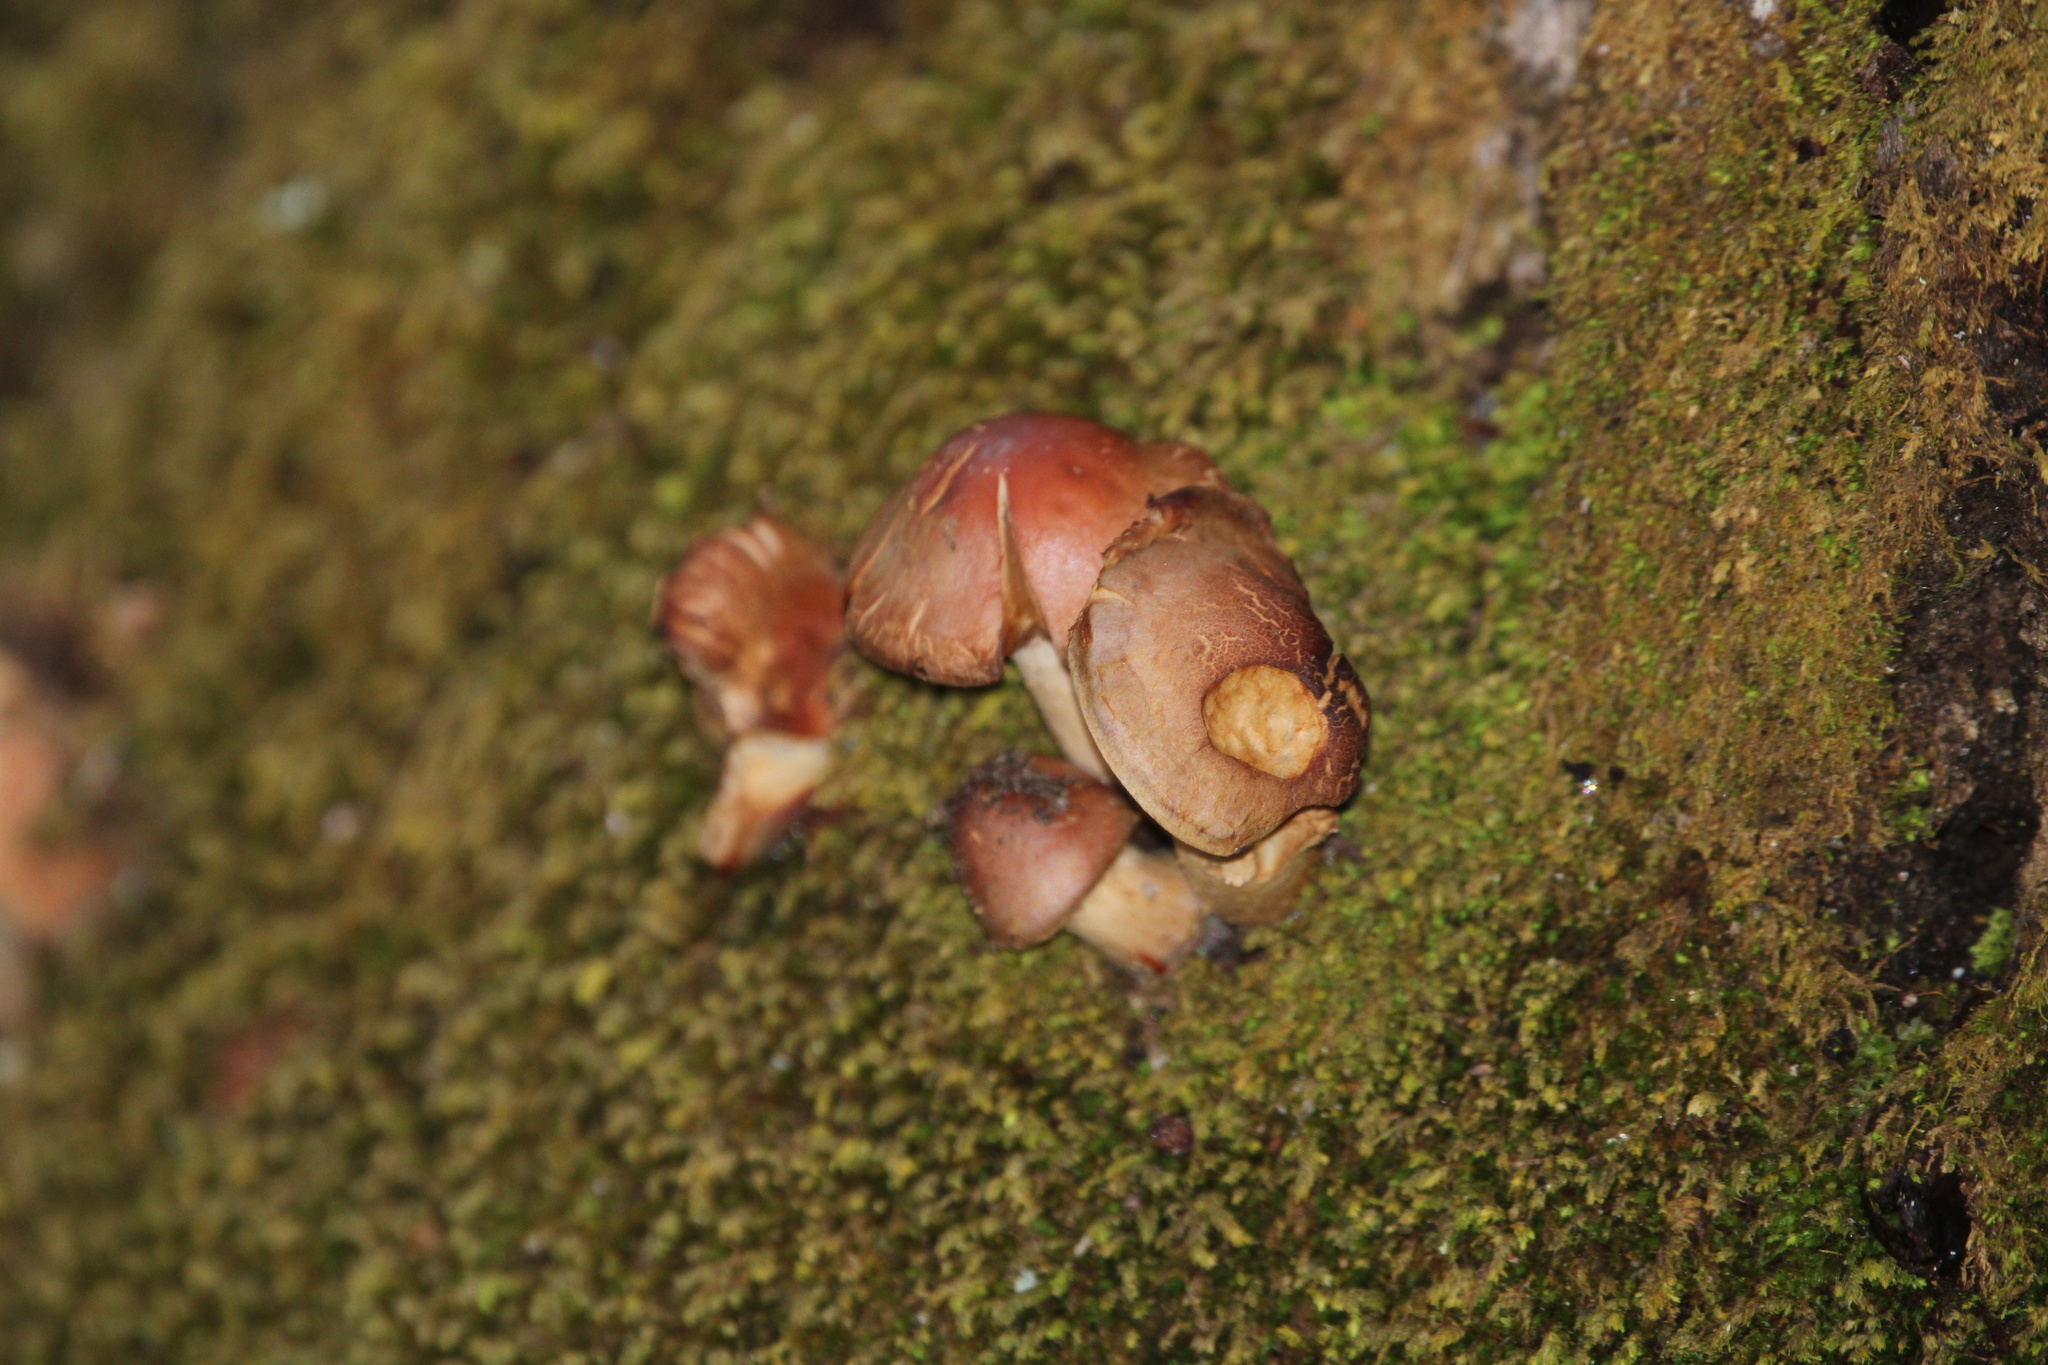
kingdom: Fungi
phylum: Basidiomycota
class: Agaricomycetes
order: Agaricales
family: Strophariaceae
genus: Hypholoma
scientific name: Hypholoma lateritium
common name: Brick caps
